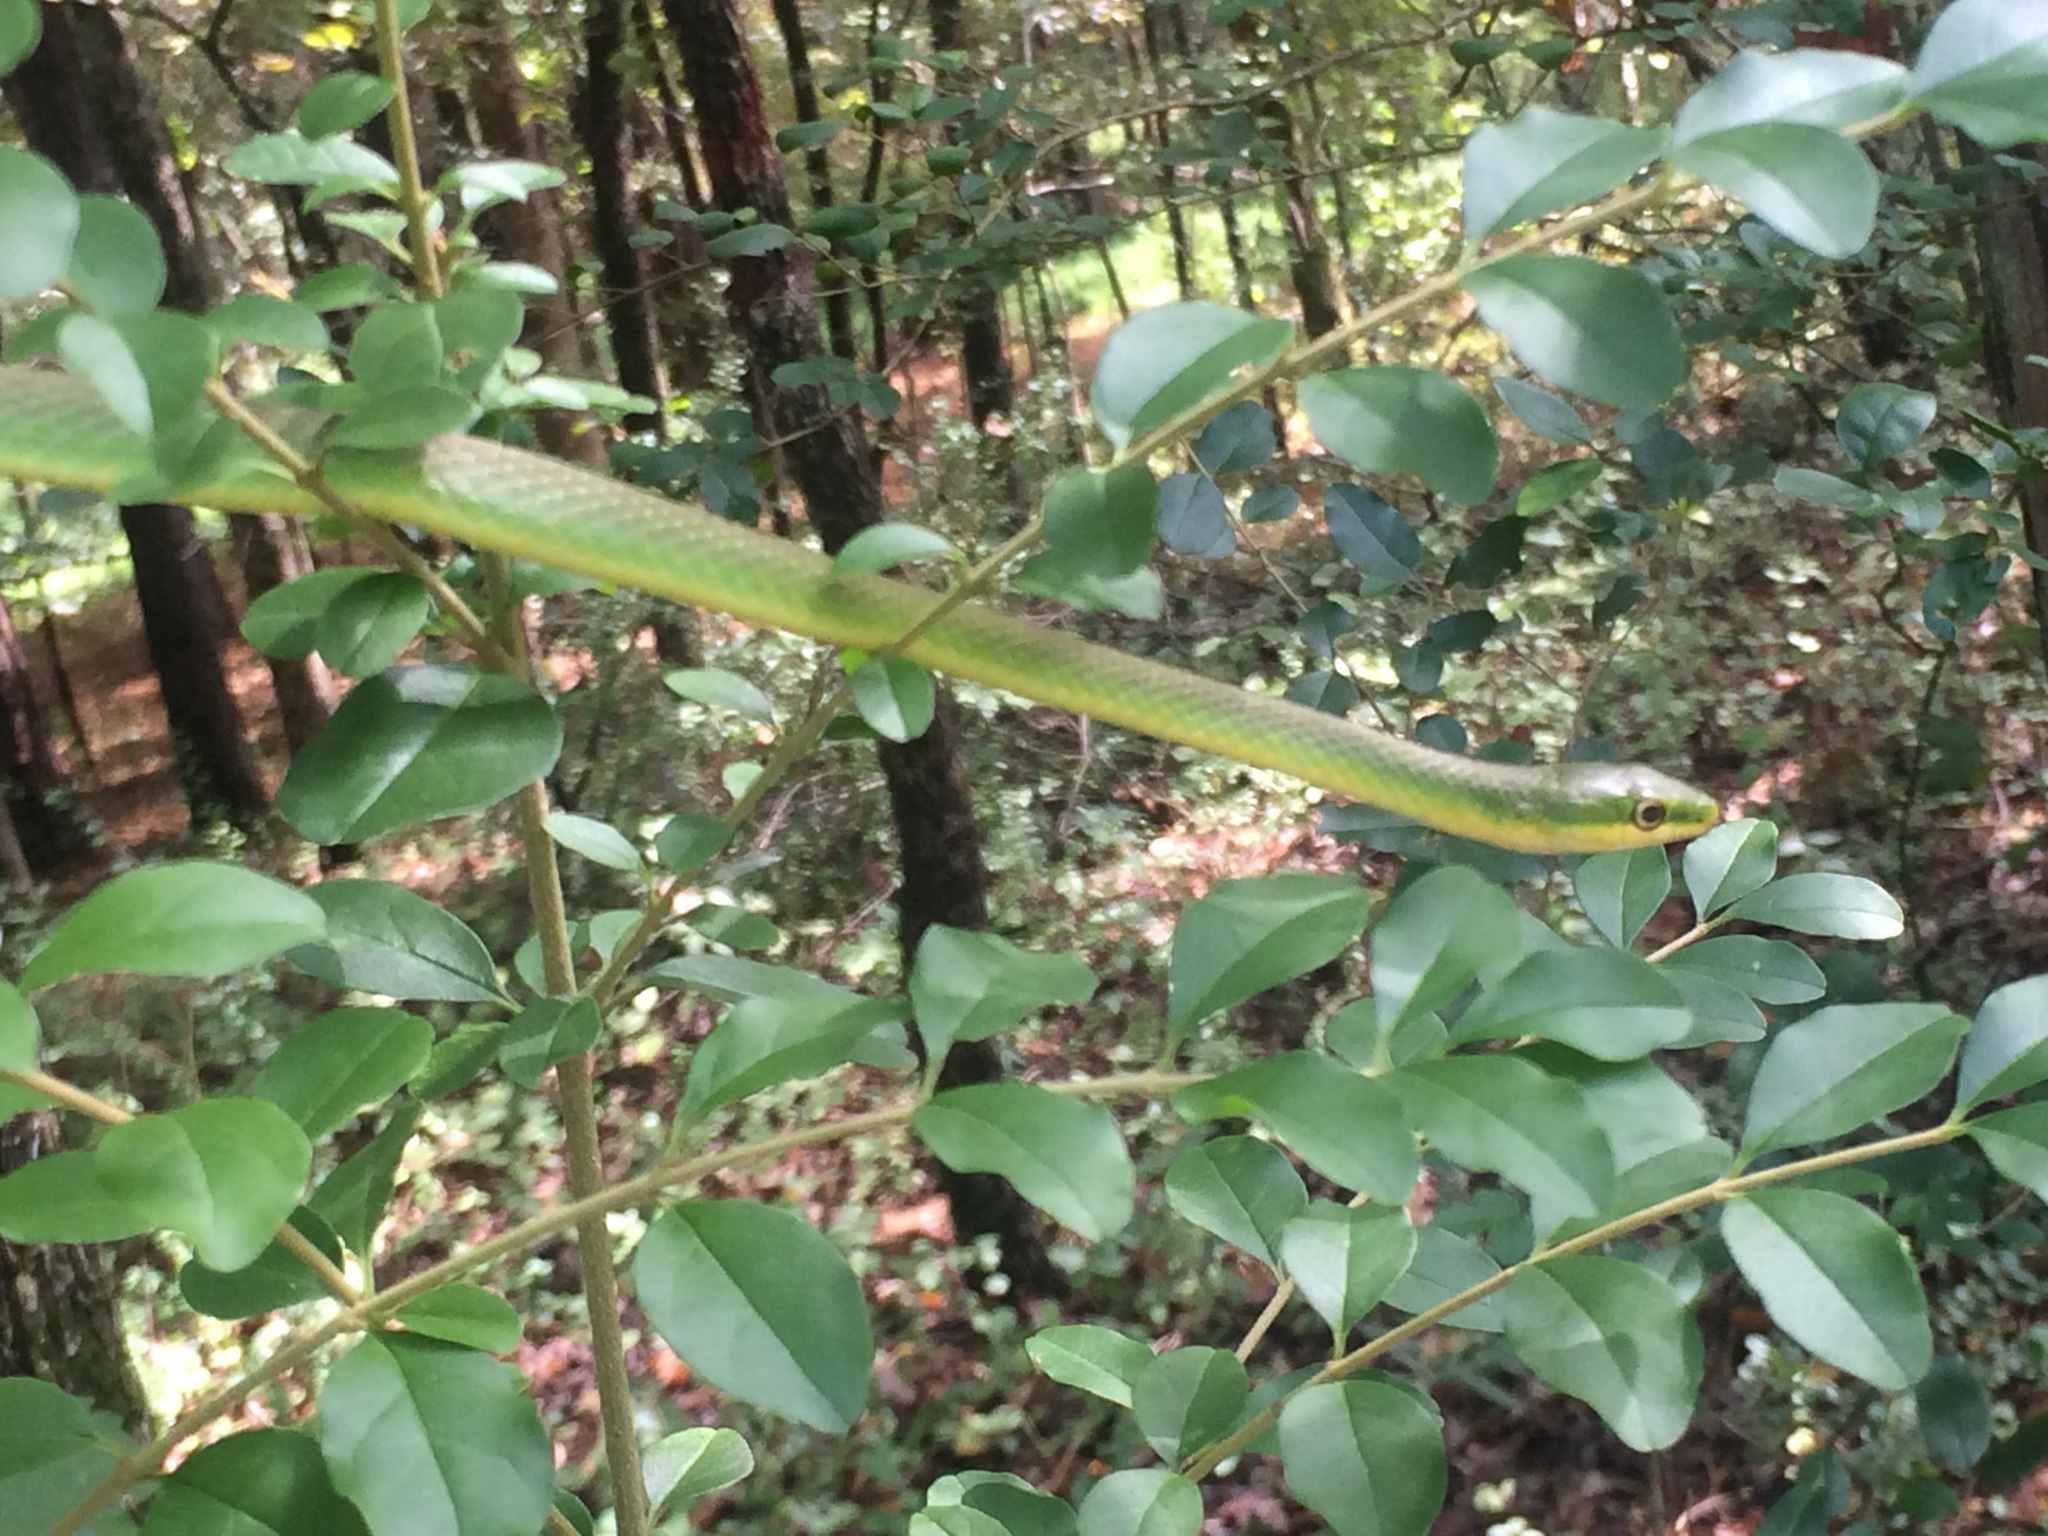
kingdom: Animalia
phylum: Chordata
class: Squamata
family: Colubridae
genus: Opheodrys
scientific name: Opheodrys aestivus
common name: Rough greensnake
